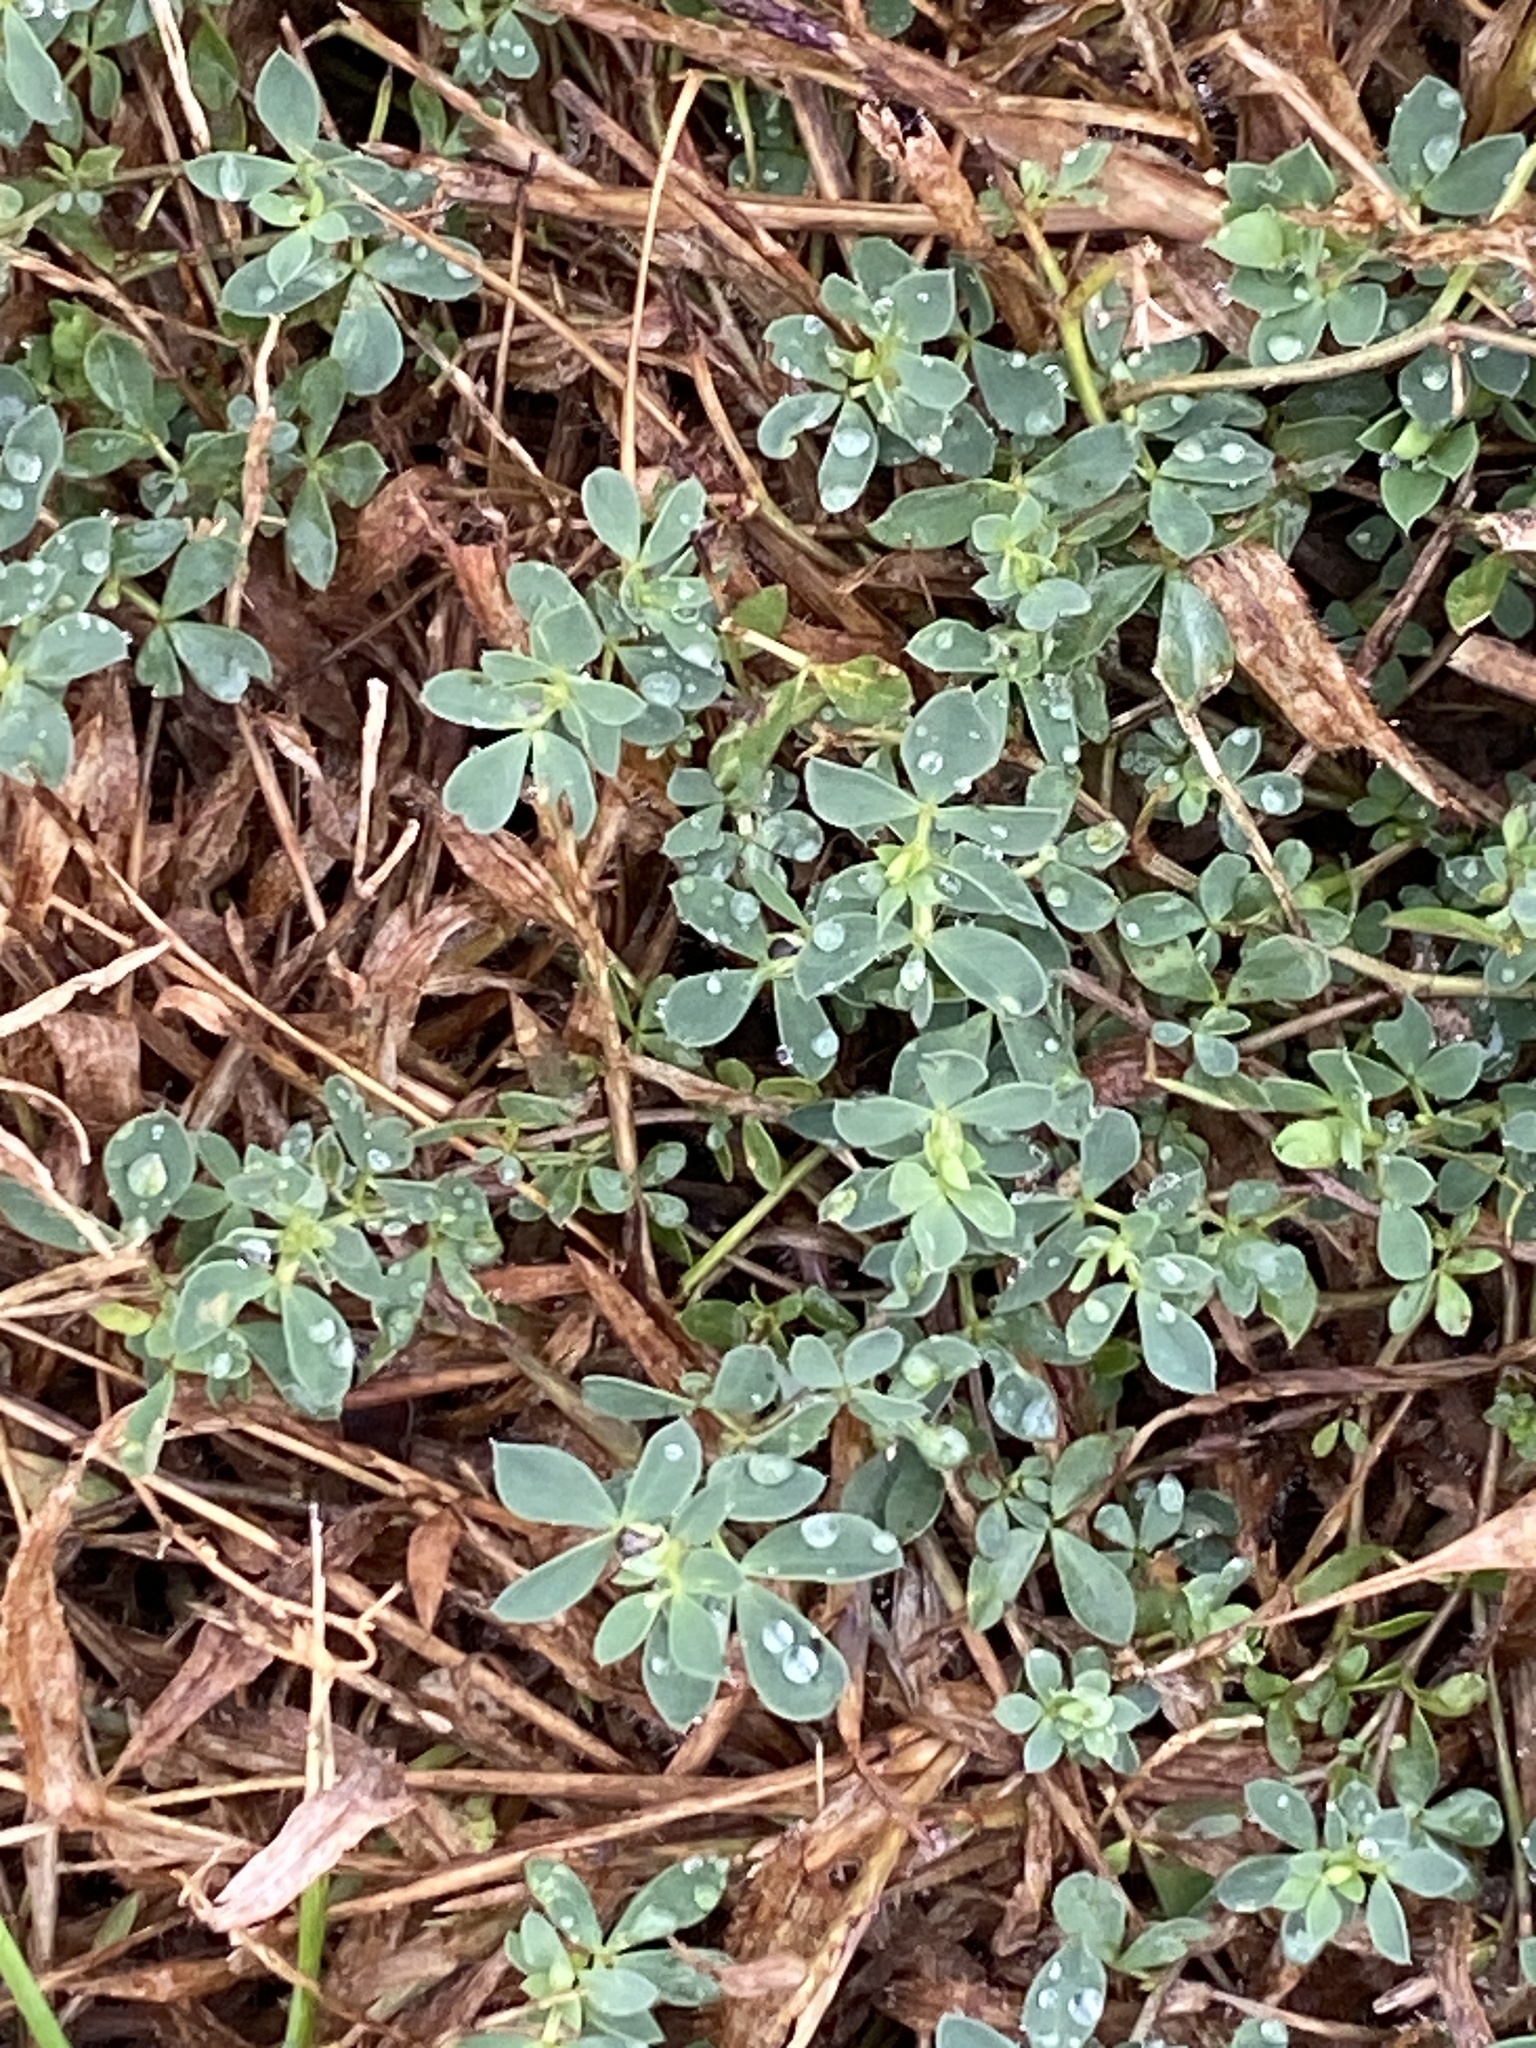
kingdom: Plantae
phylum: Tracheophyta
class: Magnoliopsida
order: Fabales
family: Fabaceae
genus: Lotus
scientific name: Lotus corniculatus
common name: Common bird's-foot-trefoil
